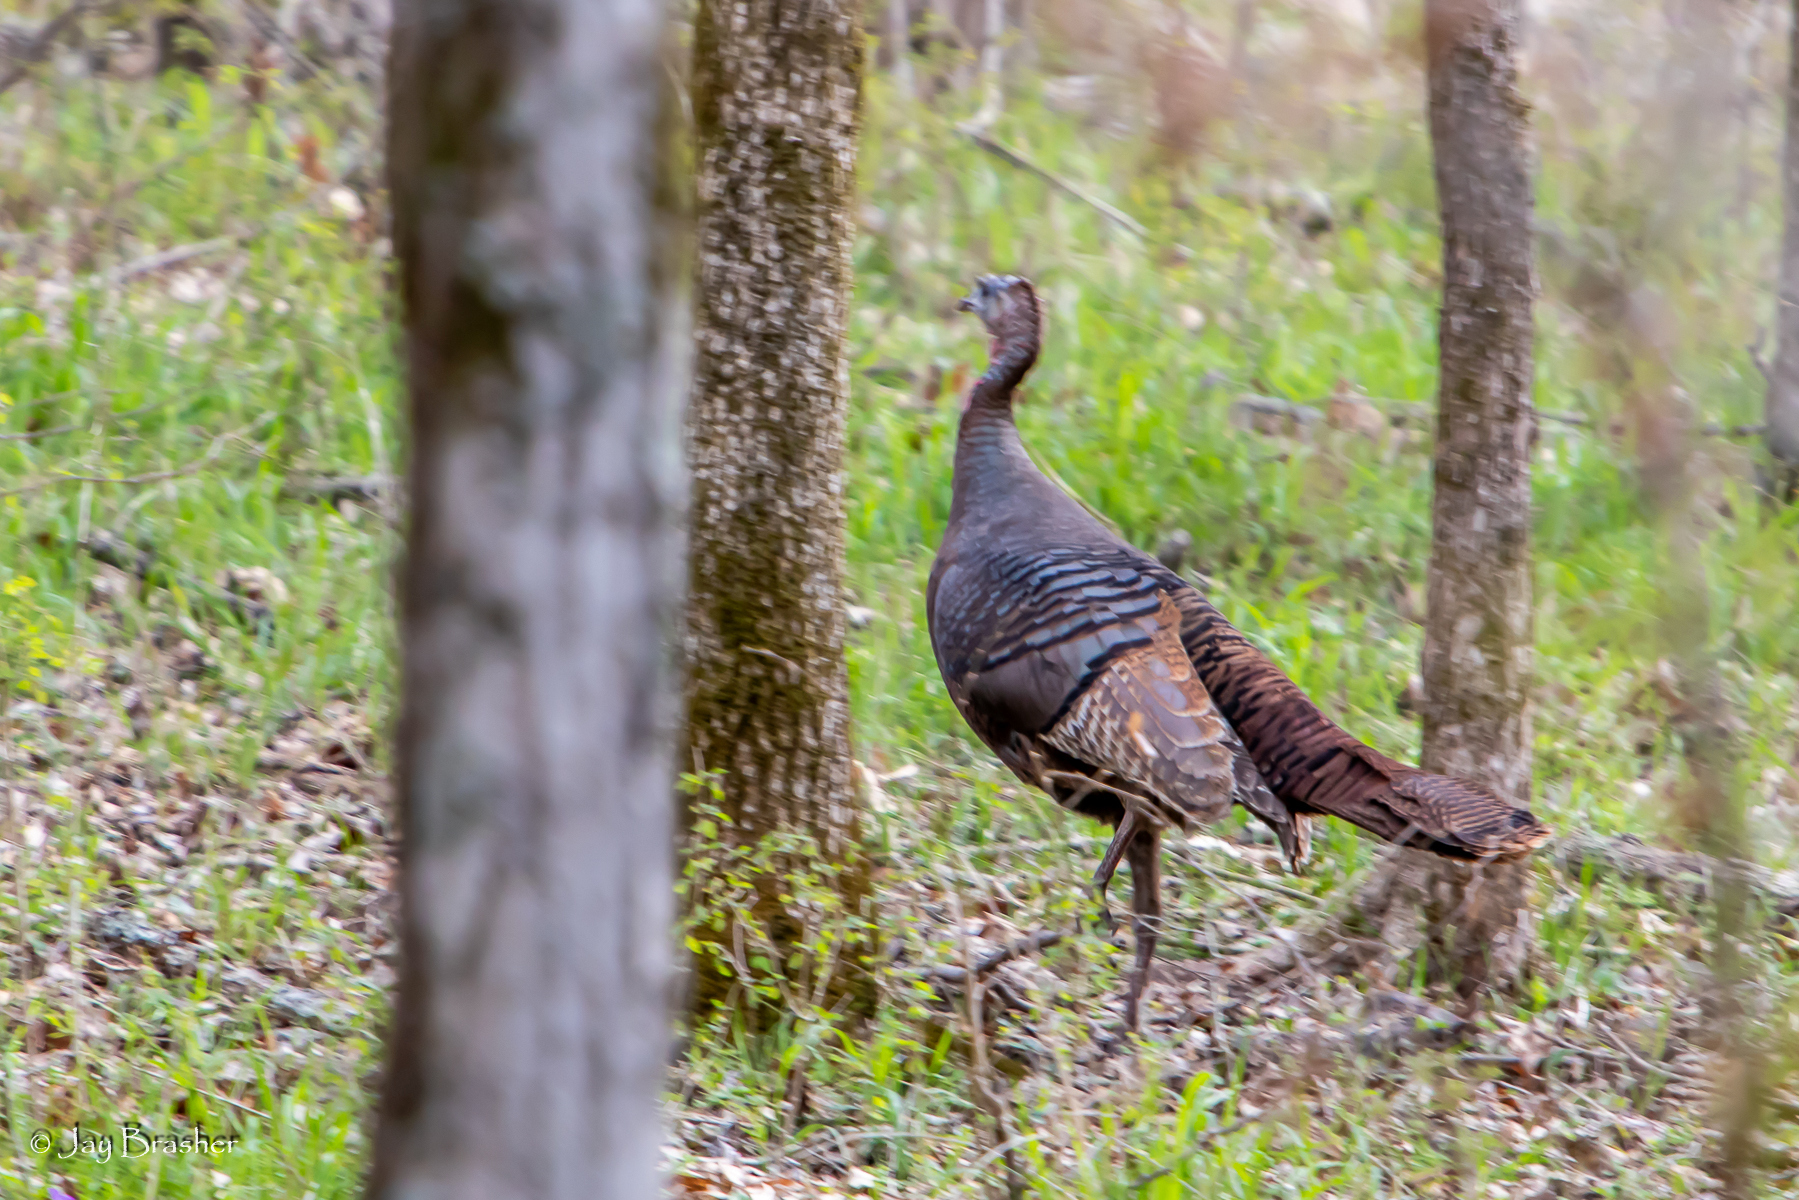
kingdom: Animalia
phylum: Chordata
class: Aves
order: Galliformes
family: Phasianidae
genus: Meleagris
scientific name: Meleagris gallopavo
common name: Wild turkey
